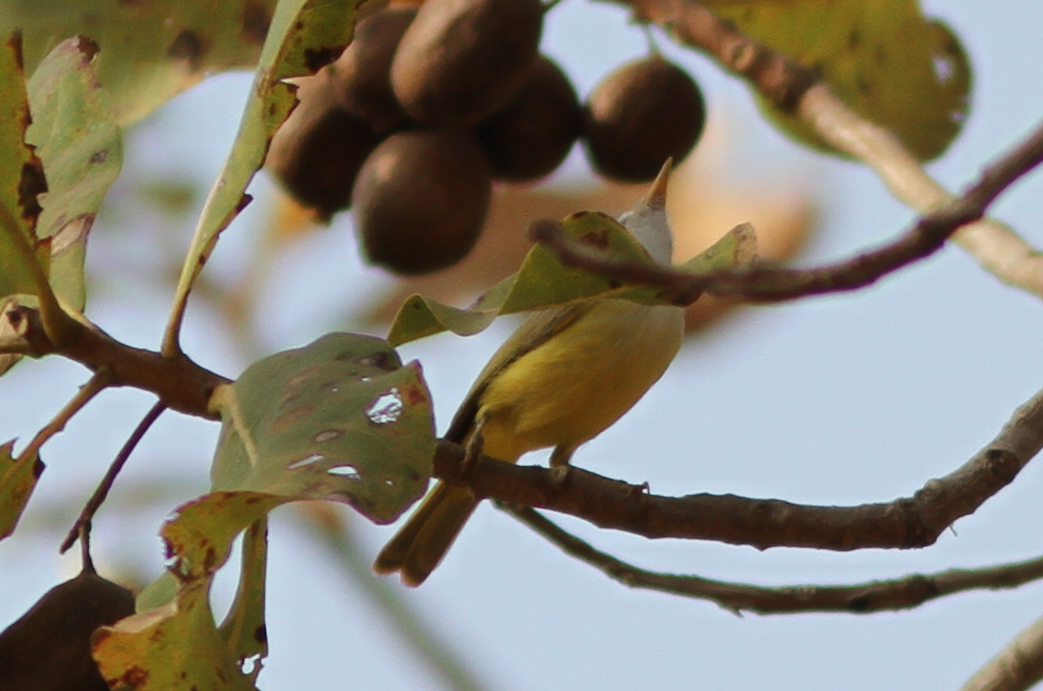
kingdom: Animalia
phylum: Chordata
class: Aves
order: Passeriformes
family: Cisticolidae
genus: Eremomela
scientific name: Eremomela pusilla
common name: Senegal eremomela
